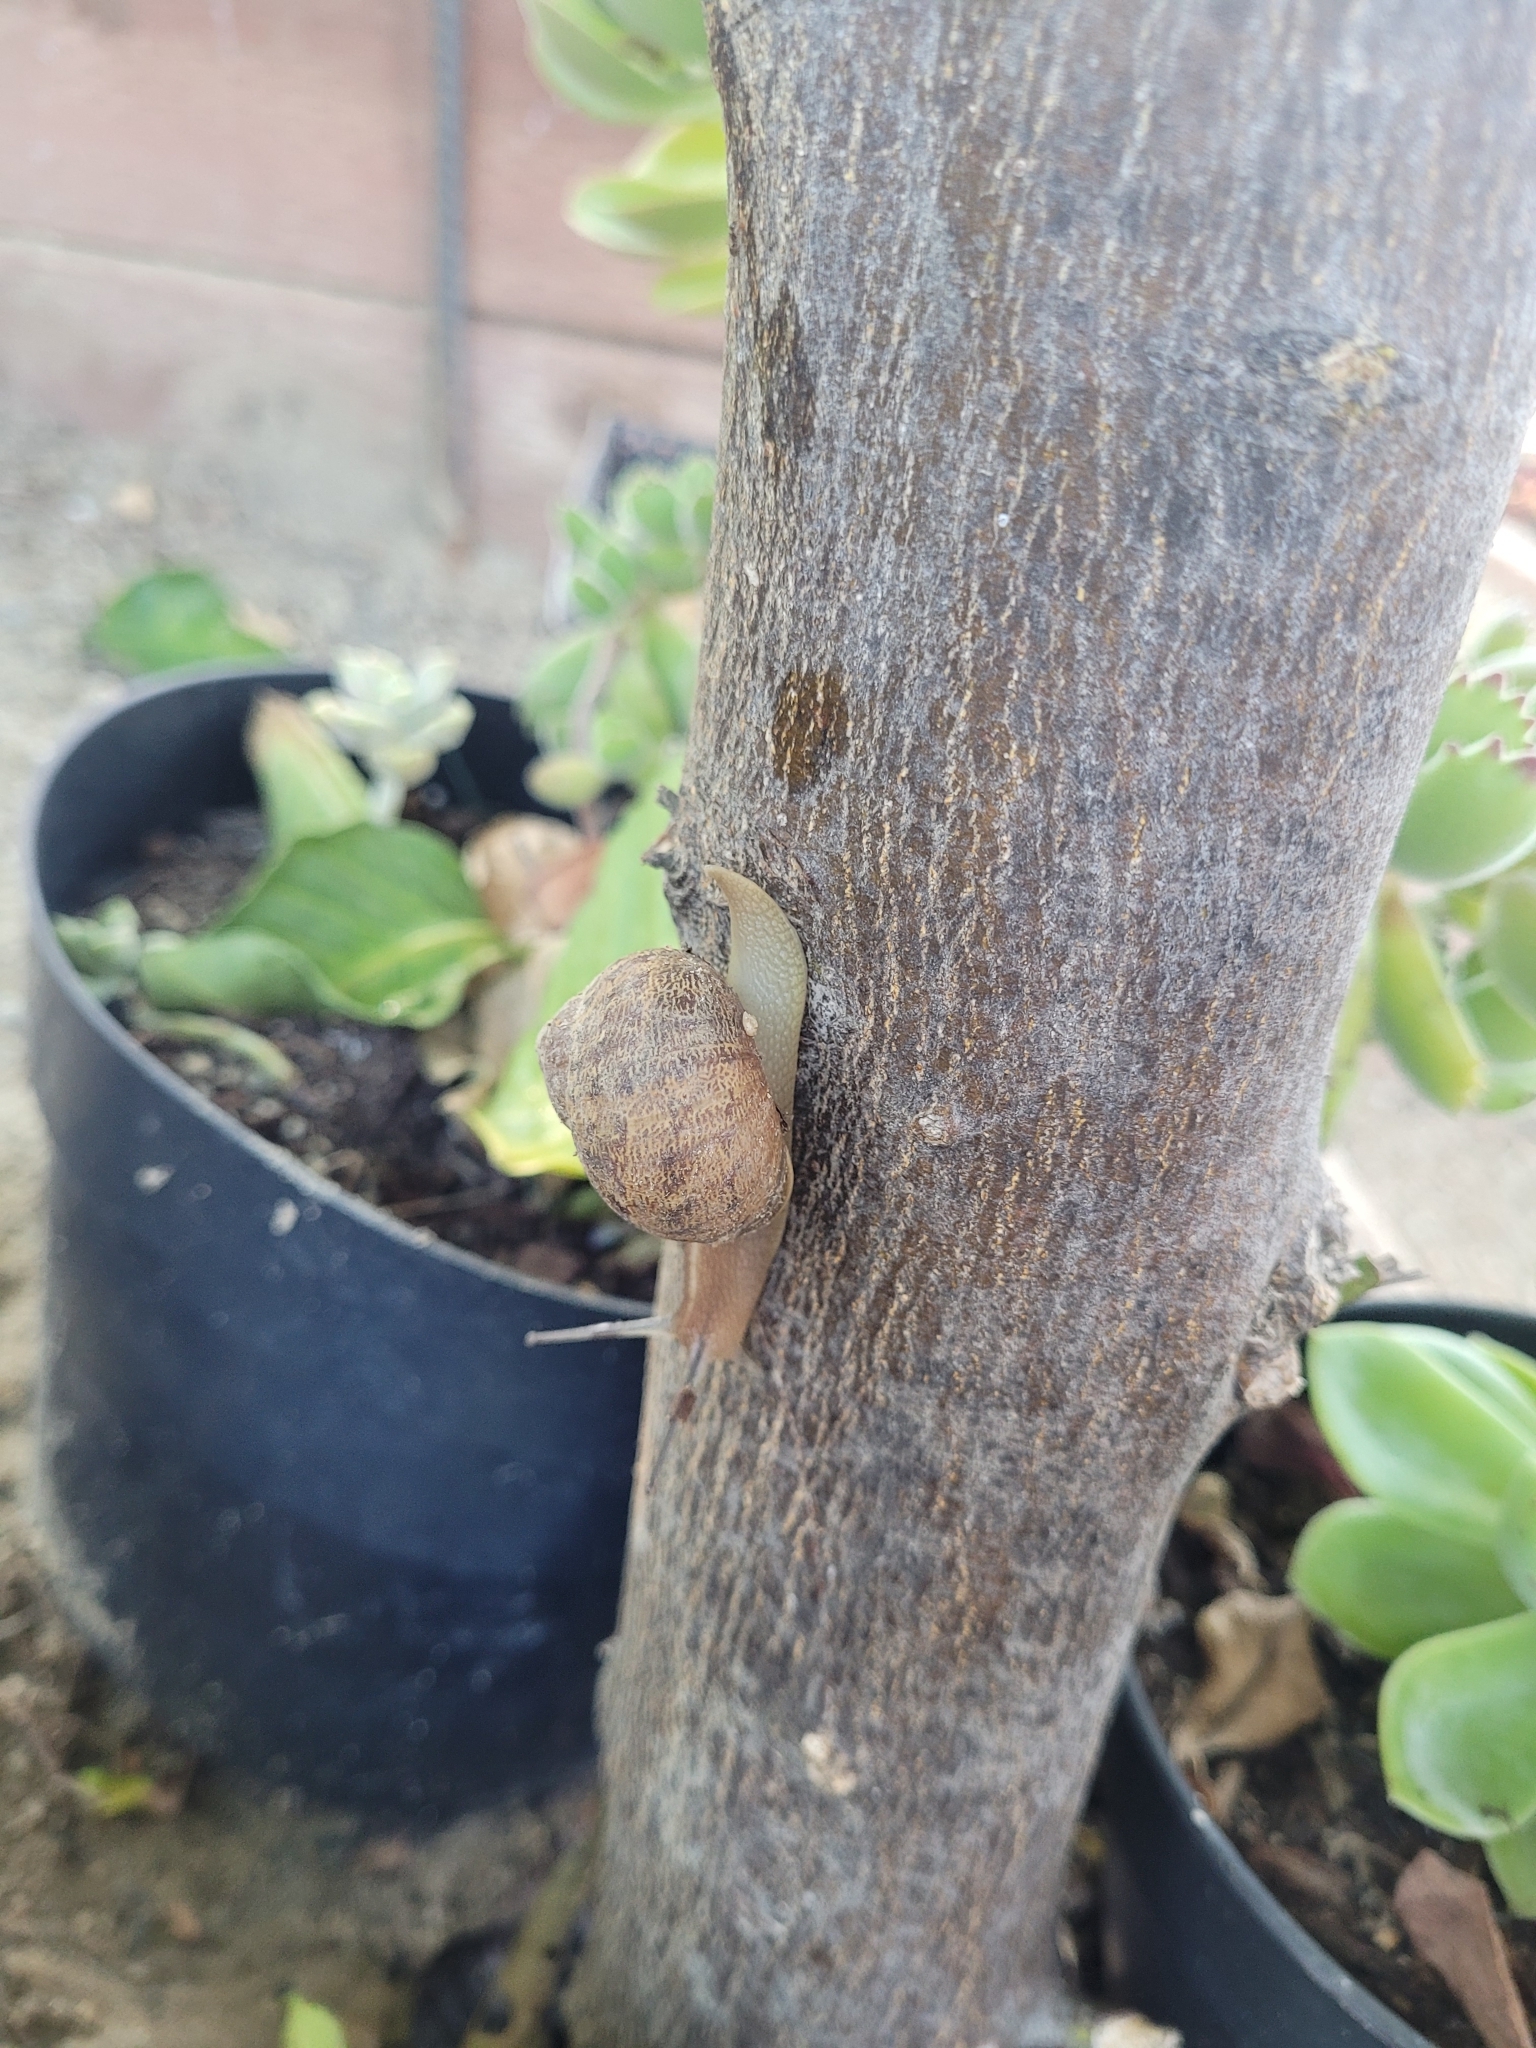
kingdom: Animalia
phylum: Mollusca
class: Gastropoda
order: Stylommatophora
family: Helicidae
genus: Cornu
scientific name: Cornu aspersum
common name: Brown garden snail
